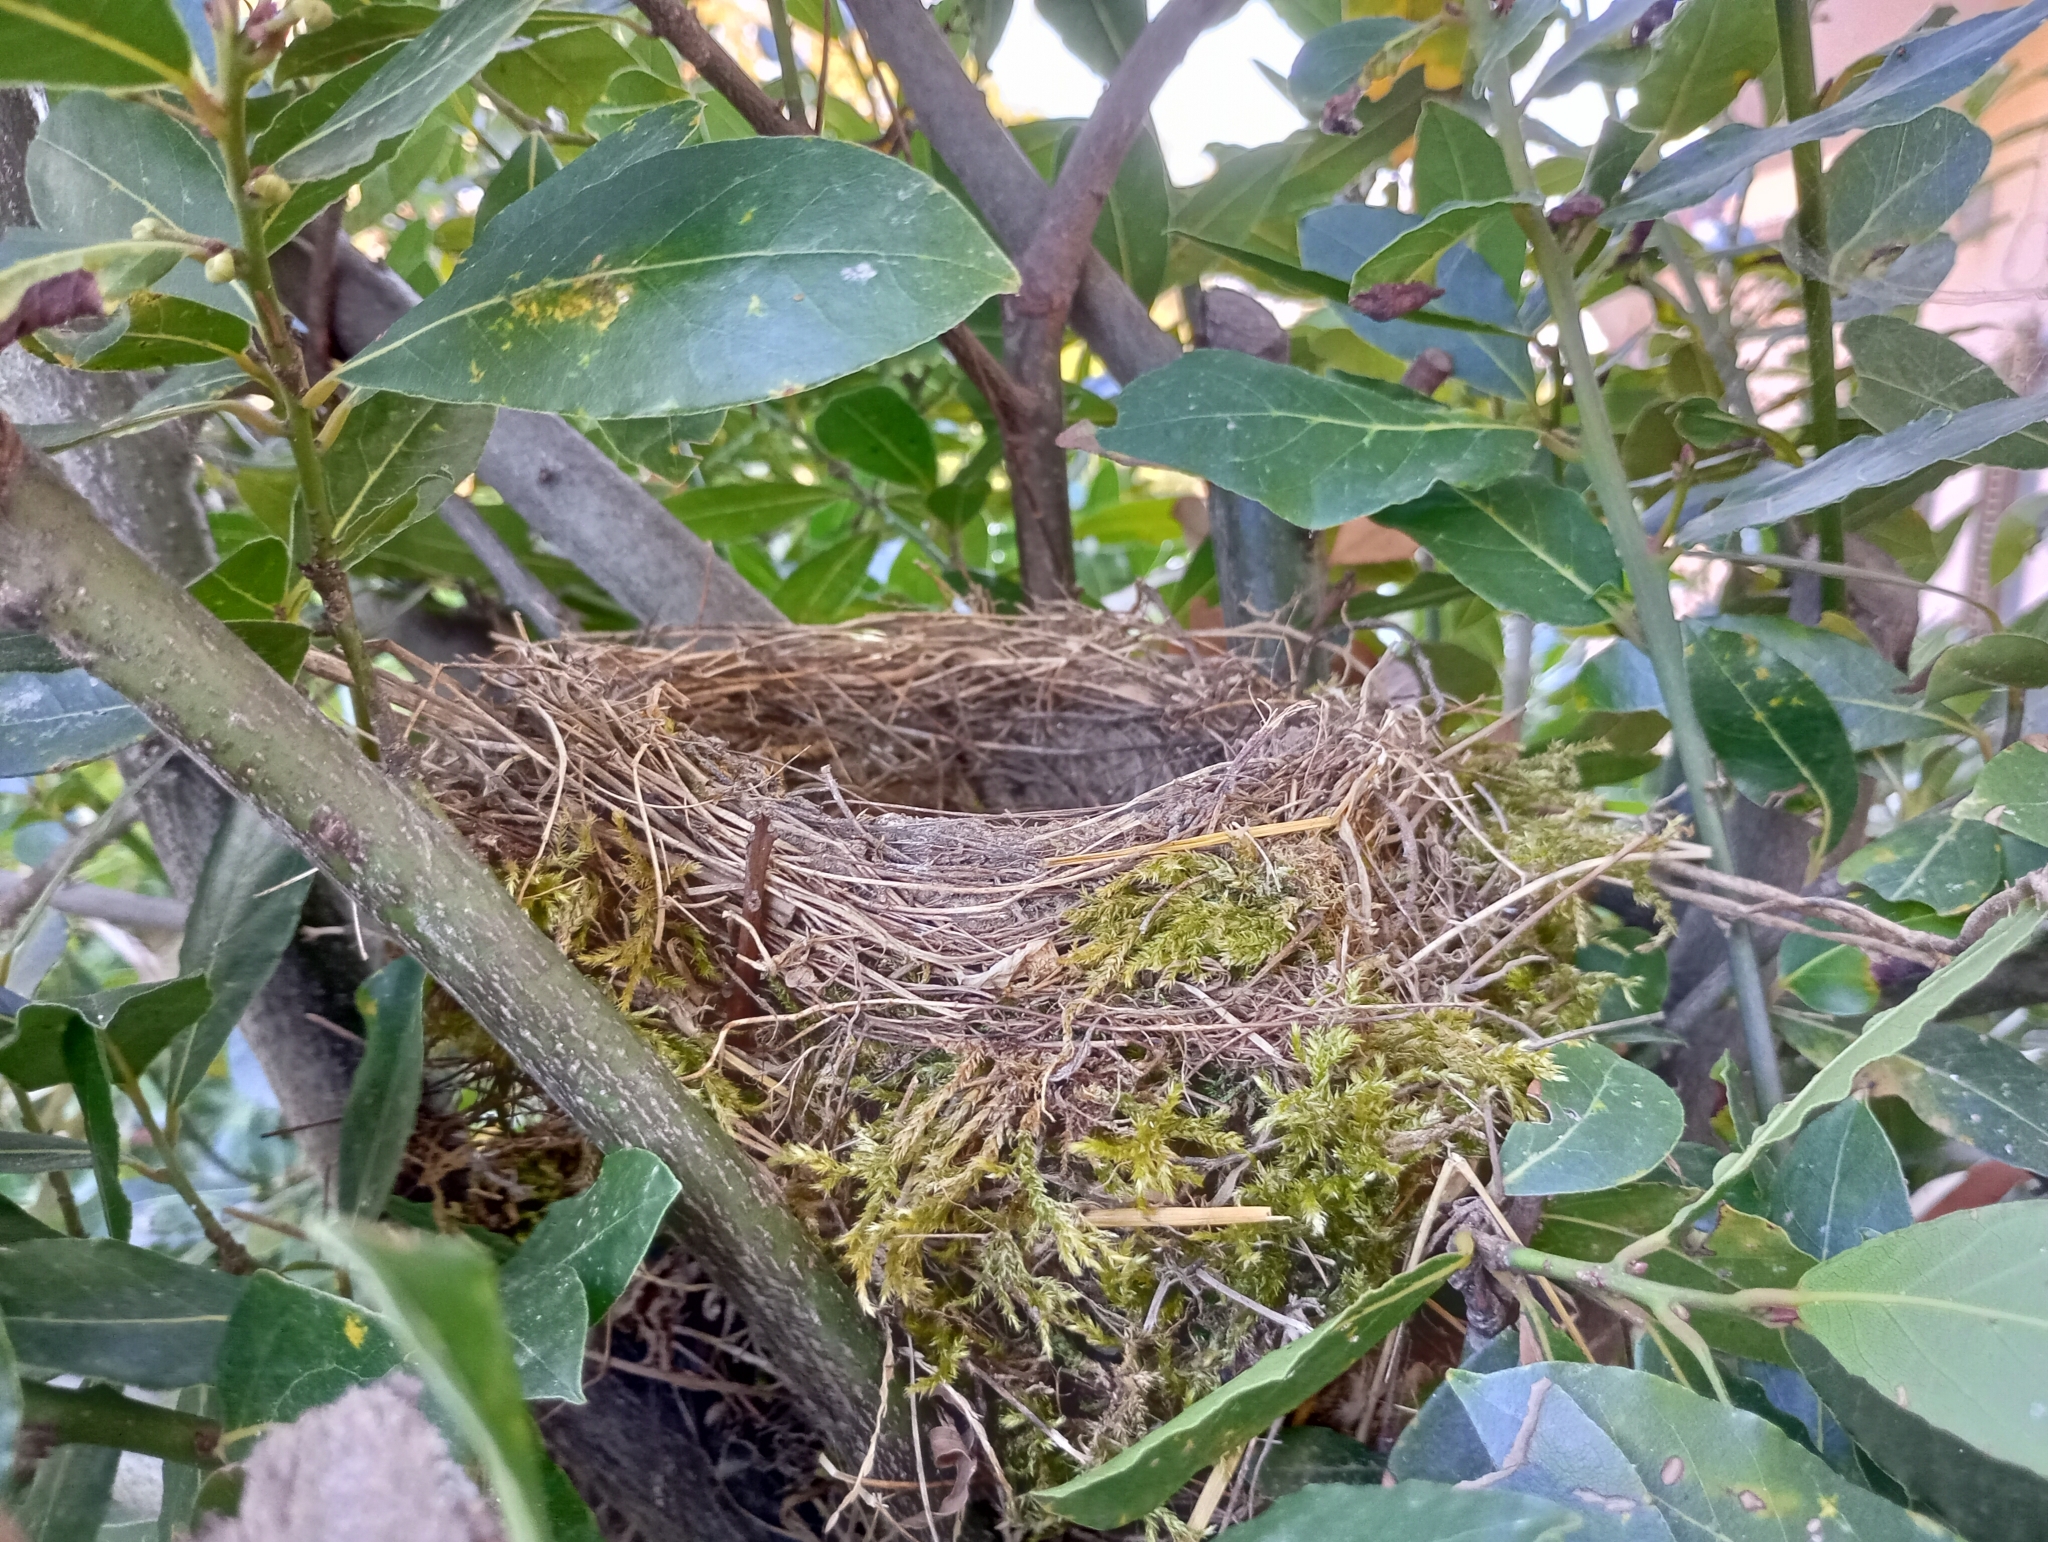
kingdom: Animalia
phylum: Chordata
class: Aves
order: Passeriformes
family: Turdidae
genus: Turdus
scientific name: Turdus merula
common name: Common blackbird
